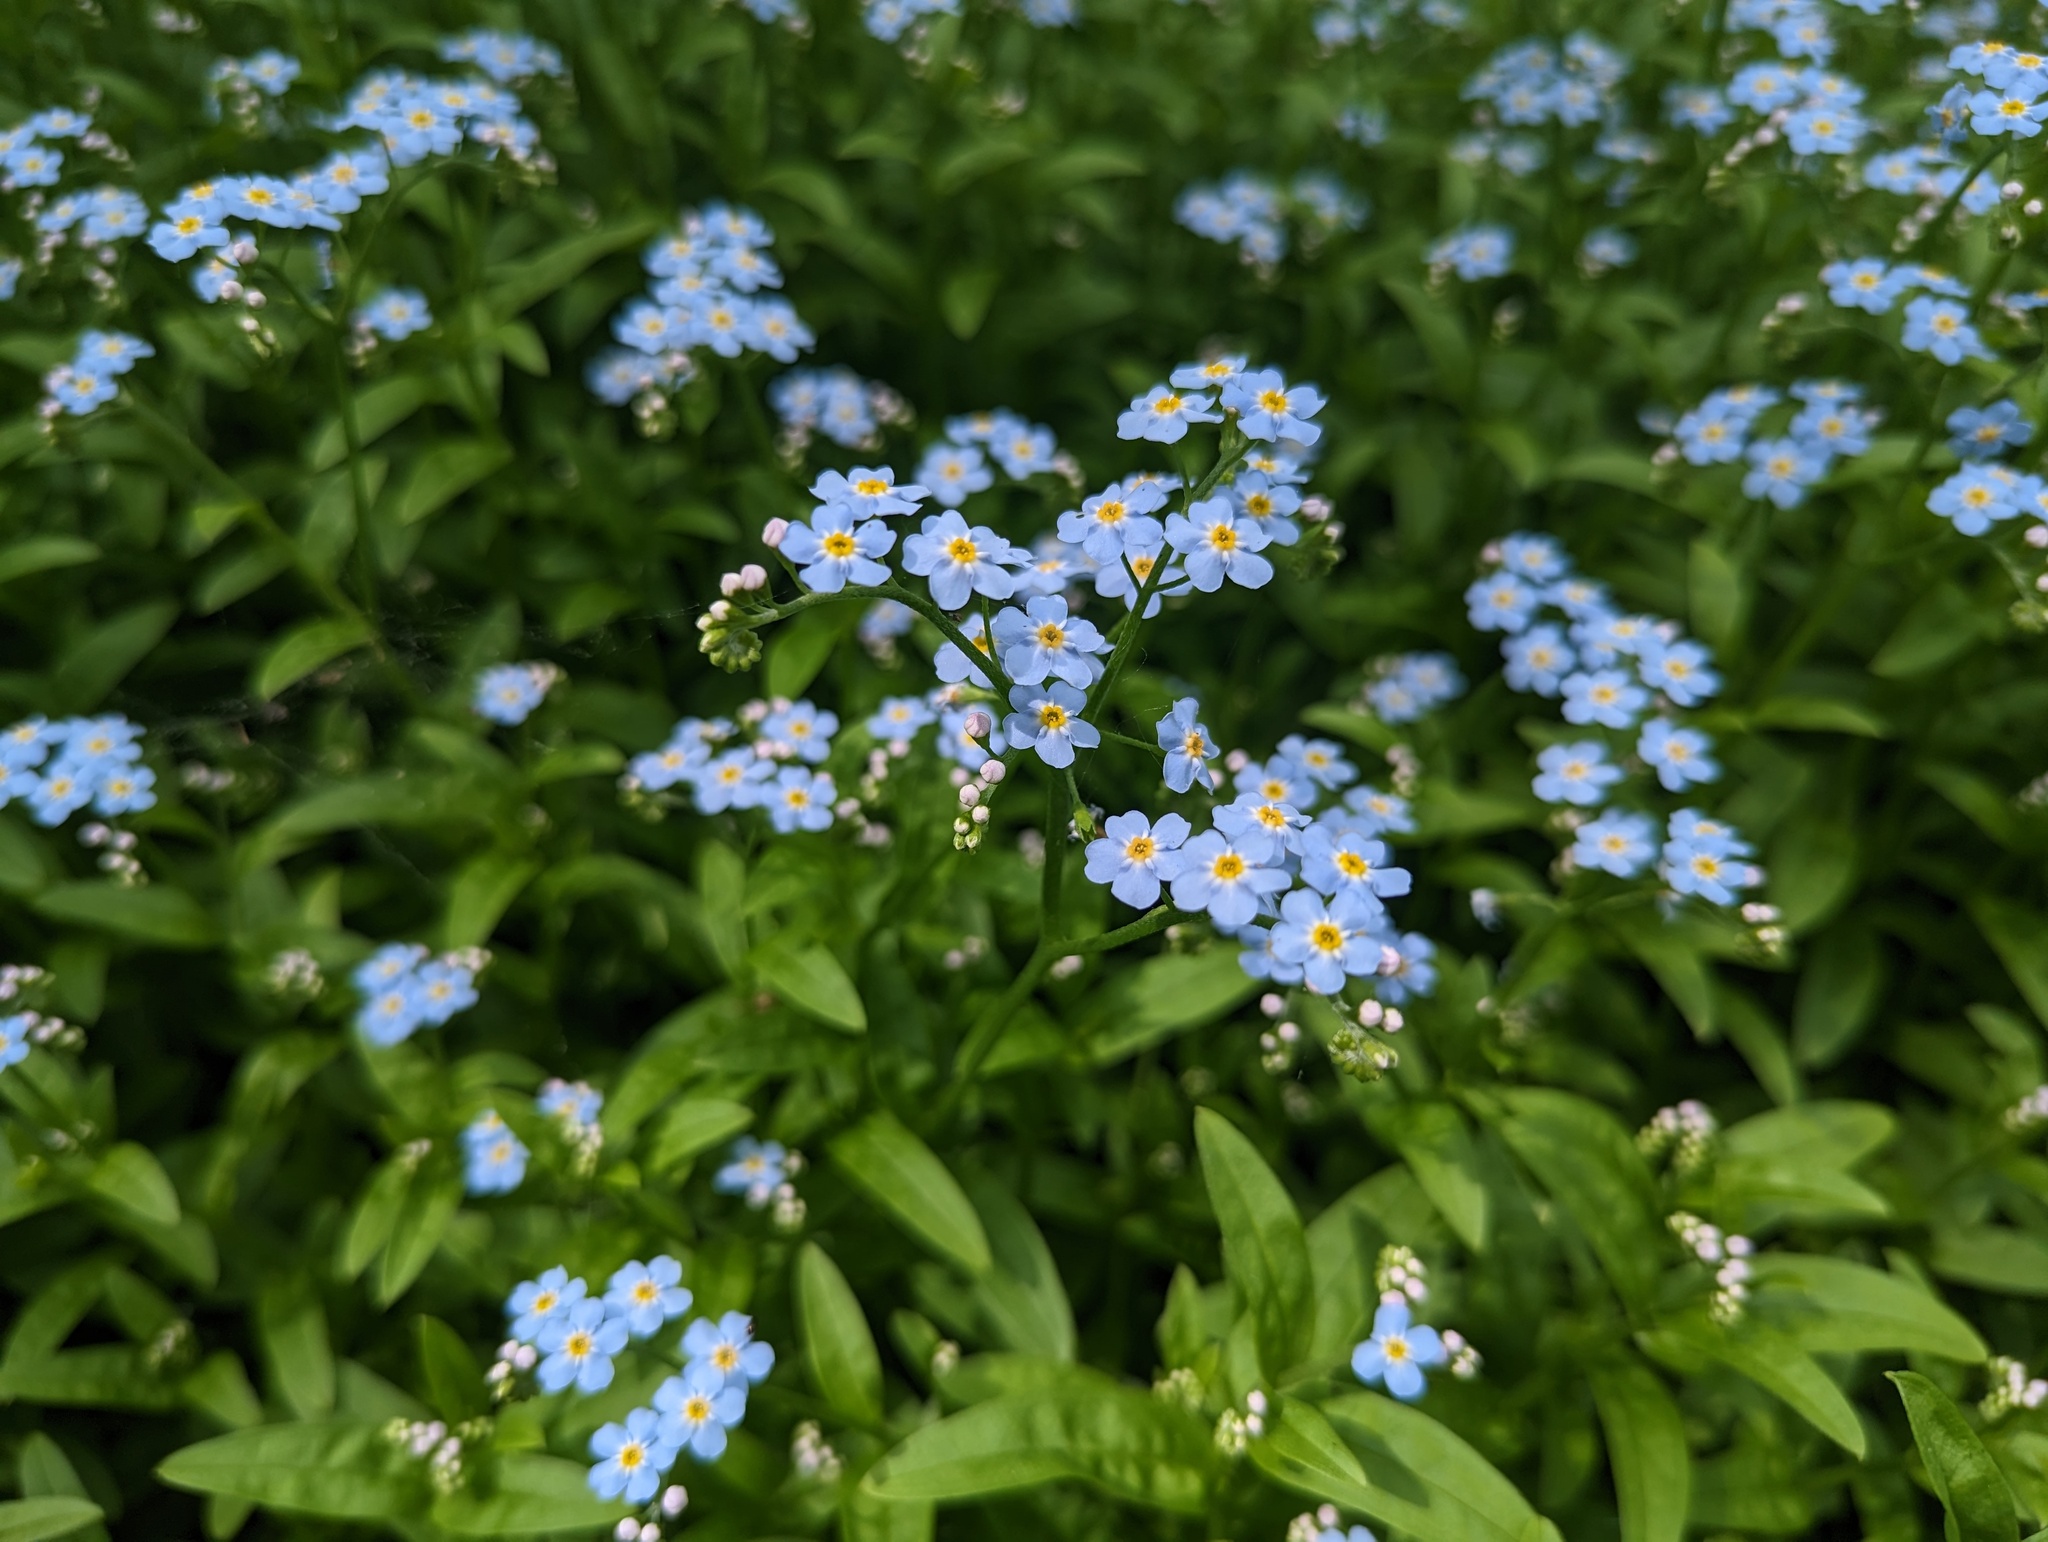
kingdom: Plantae
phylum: Tracheophyta
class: Magnoliopsida
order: Boraginales
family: Boraginaceae
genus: Myosotis
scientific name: Myosotis scorpioides
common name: Water forget-me-not
